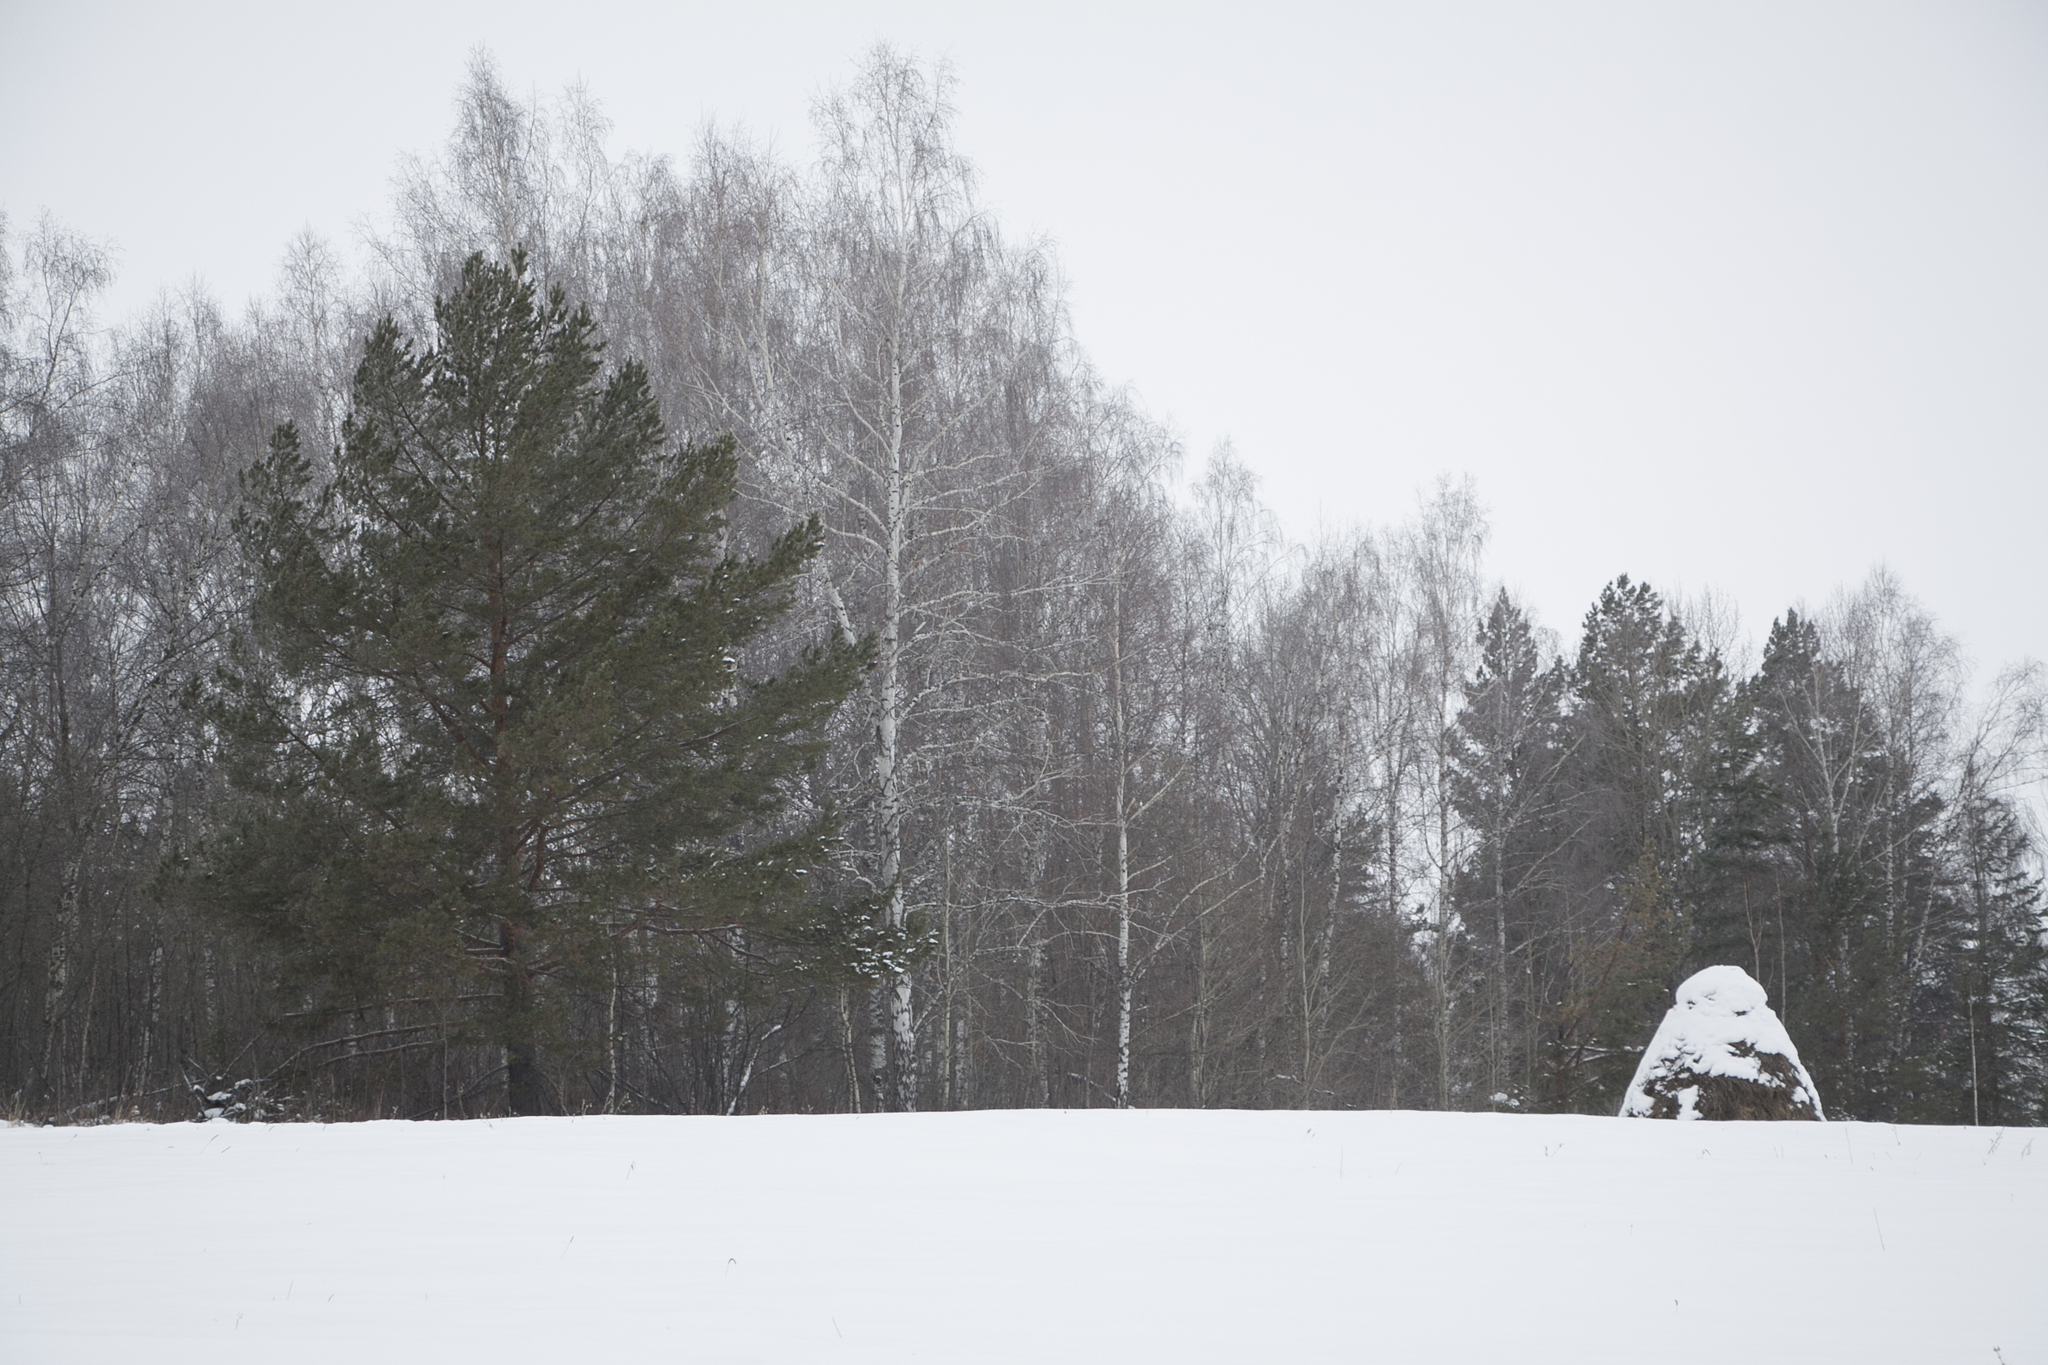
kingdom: Plantae
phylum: Tracheophyta
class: Pinopsida
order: Pinales
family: Pinaceae
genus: Pinus
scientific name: Pinus sylvestris
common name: Scots pine
